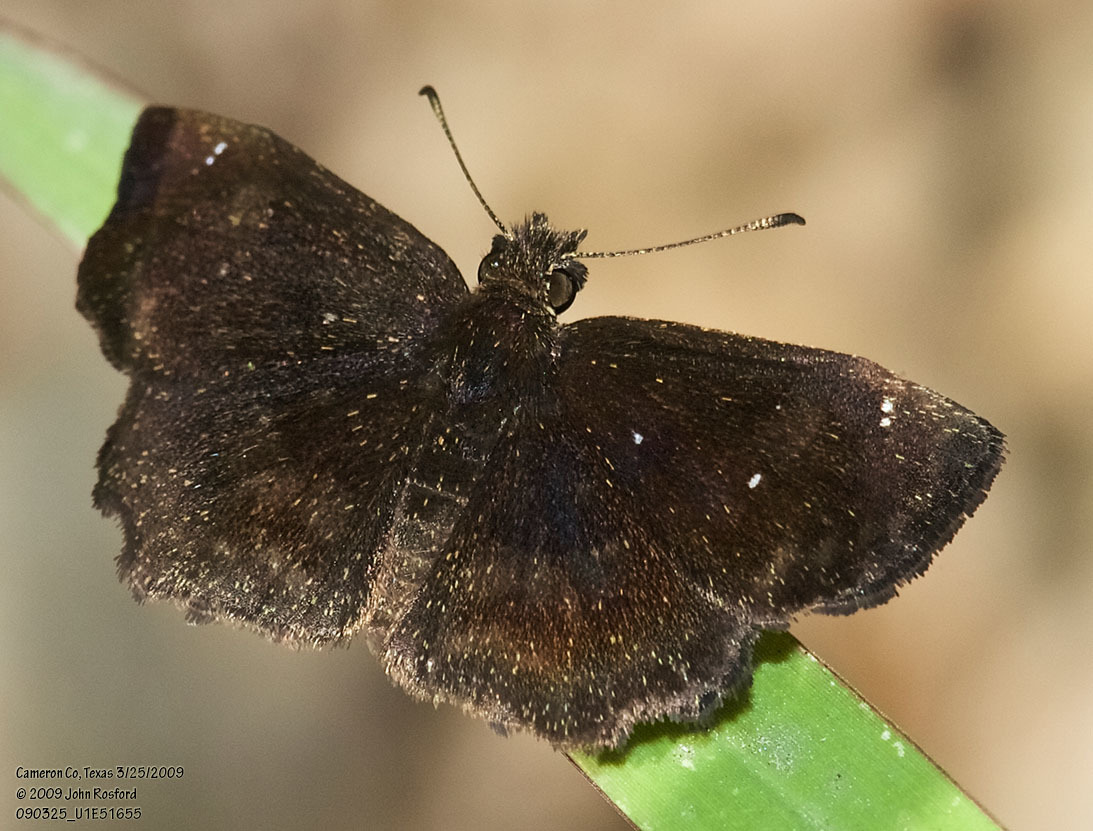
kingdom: Animalia
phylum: Arthropoda
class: Insecta
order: Lepidoptera
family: Hesperiidae
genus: Staphylus
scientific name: Staphylus mazans
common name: Mazans scallopwing
